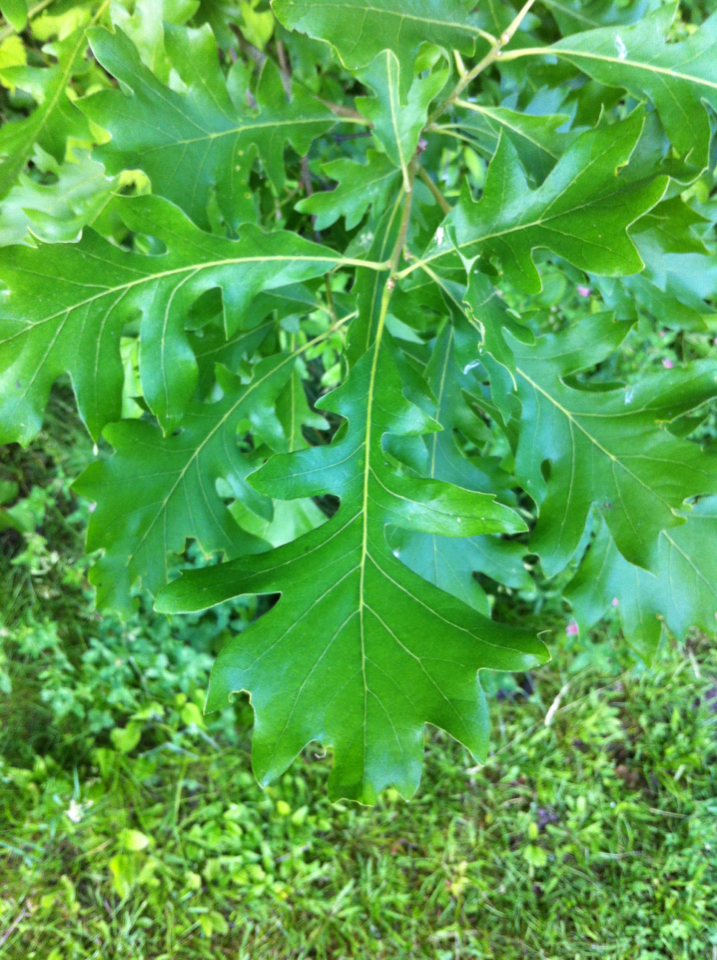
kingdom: Plantae
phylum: Tracheophyta
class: Magnoliopsida
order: Fagales
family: Fagaceae
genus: Quercus
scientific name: Quercus macrocarpa
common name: Bur oak
